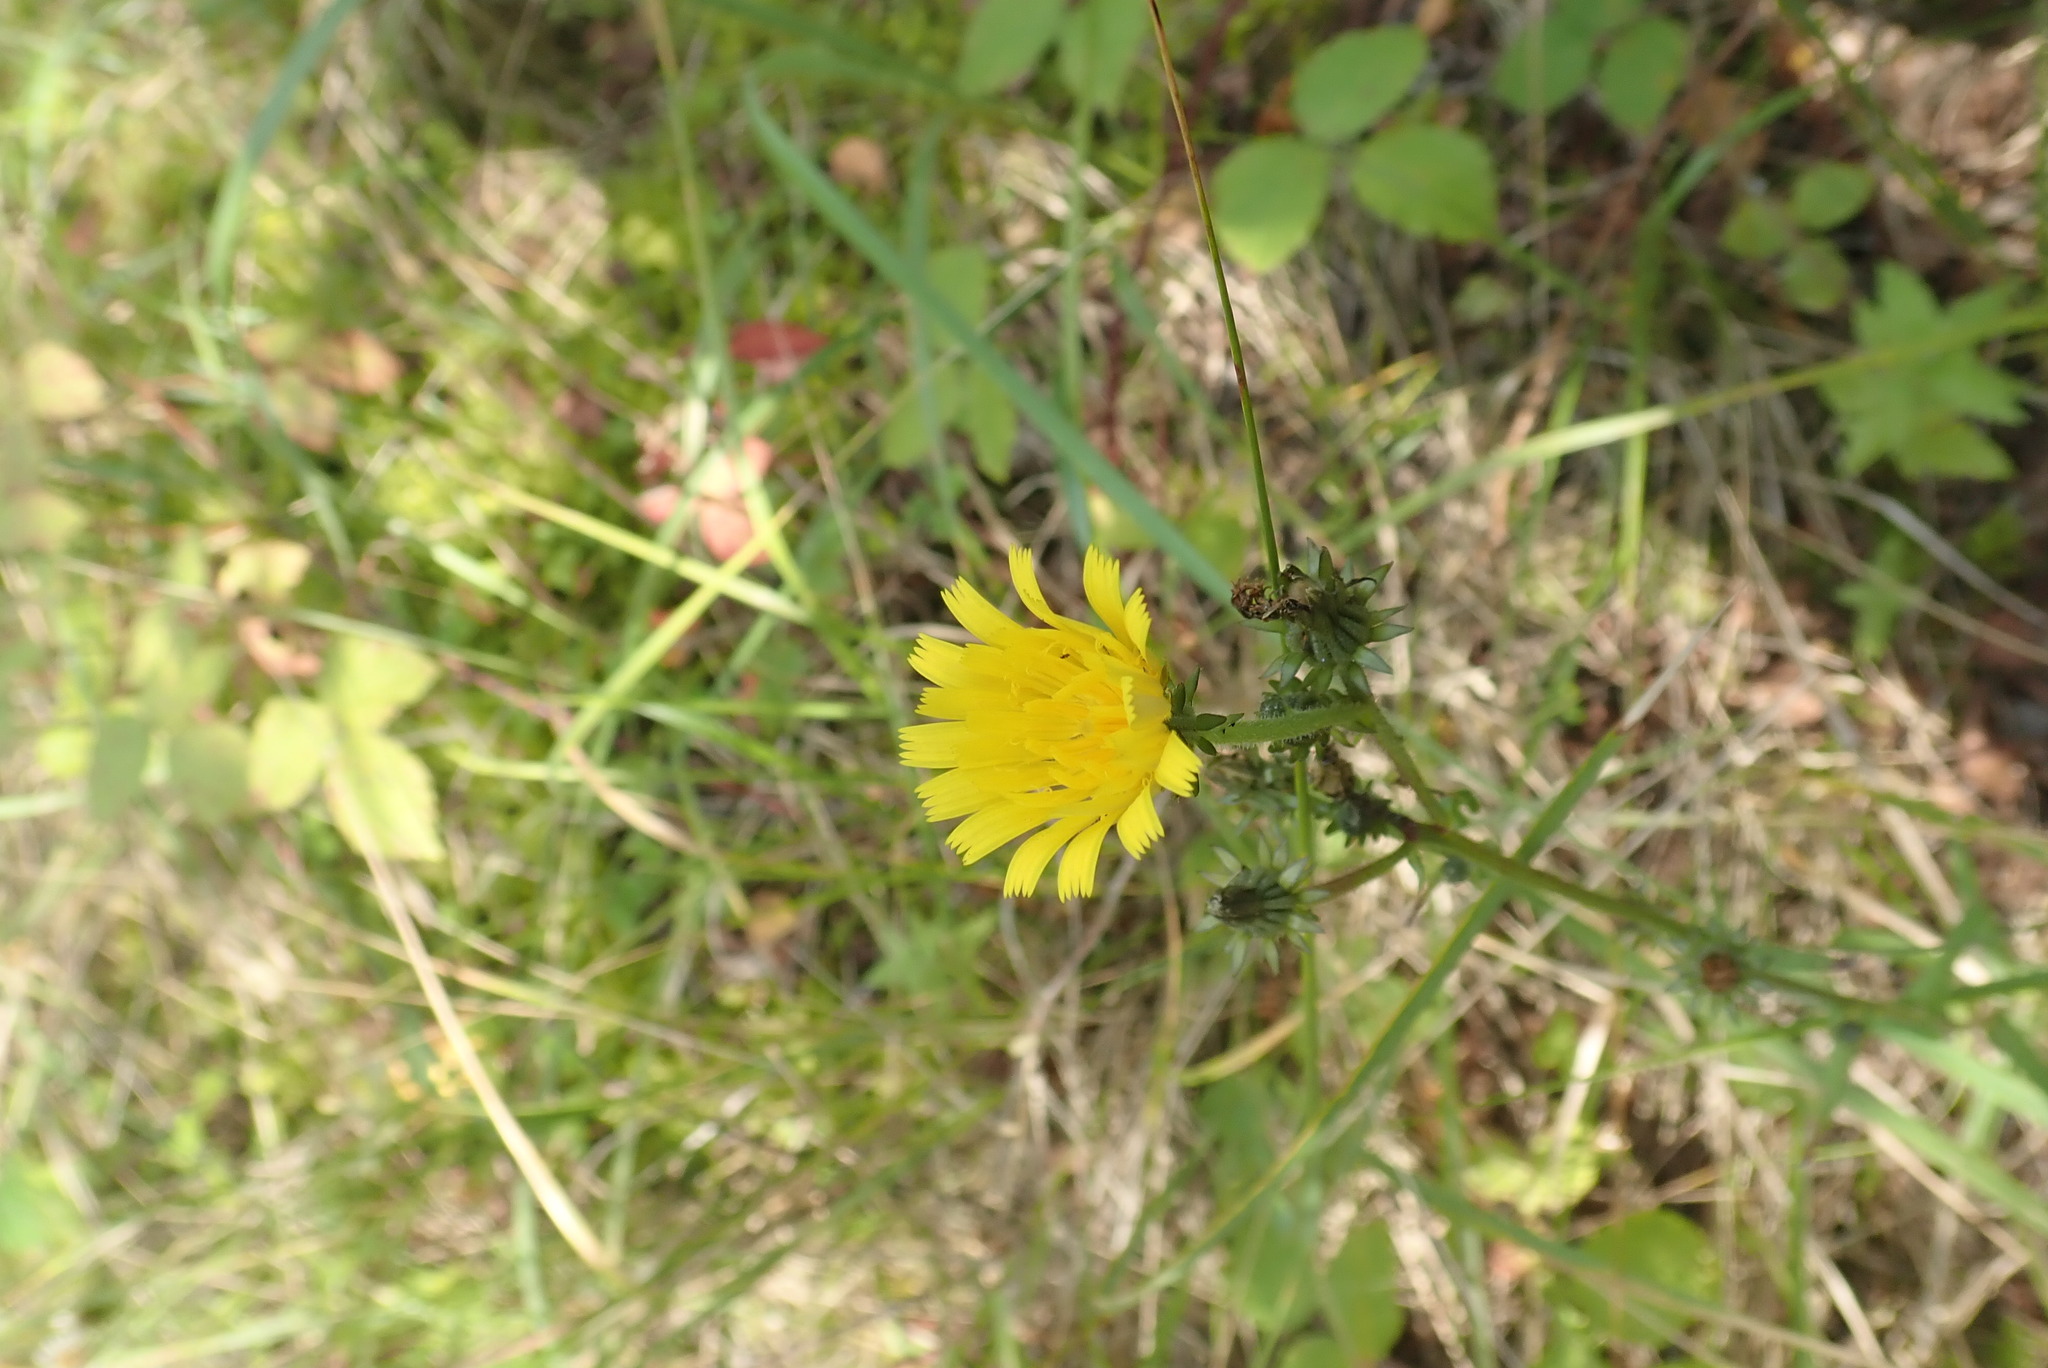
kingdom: Plantae
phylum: Tracheophyta
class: Magnoliopsida
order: Asterales
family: Asteraceae
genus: Picris
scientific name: Picris hieracioides
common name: Hawkweed oxtongue
